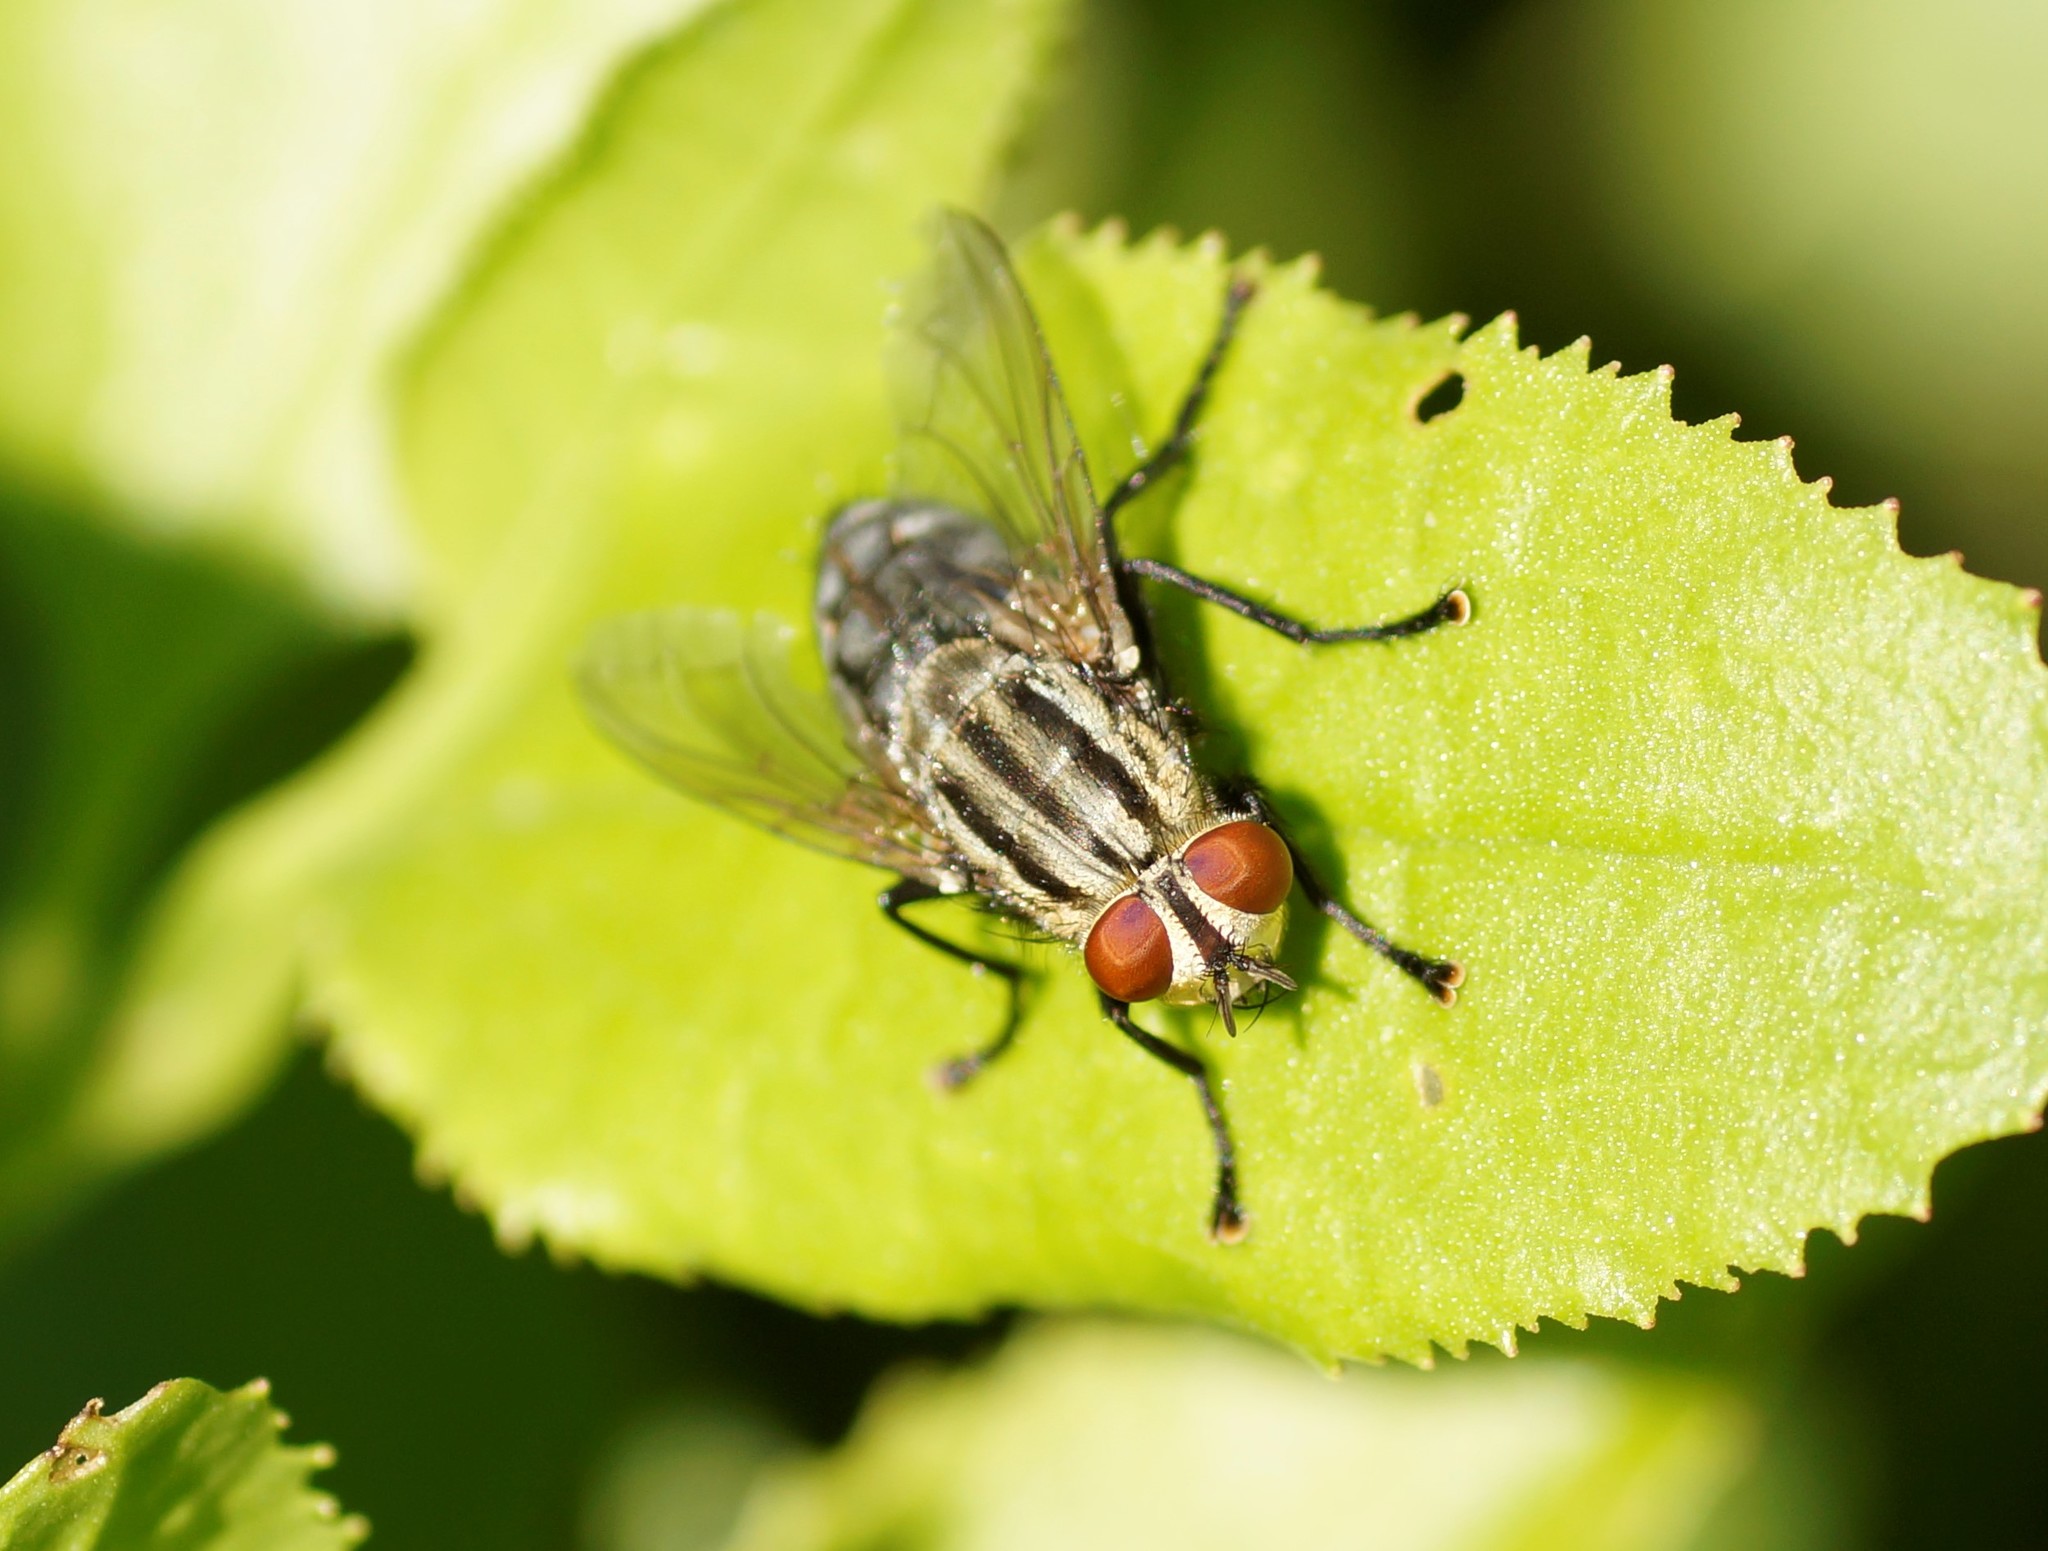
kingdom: Animalia
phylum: Arthropoda
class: Insecta
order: Diptera
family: Sarcophagidae
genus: Sarcophaga
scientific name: Sarcophaga
